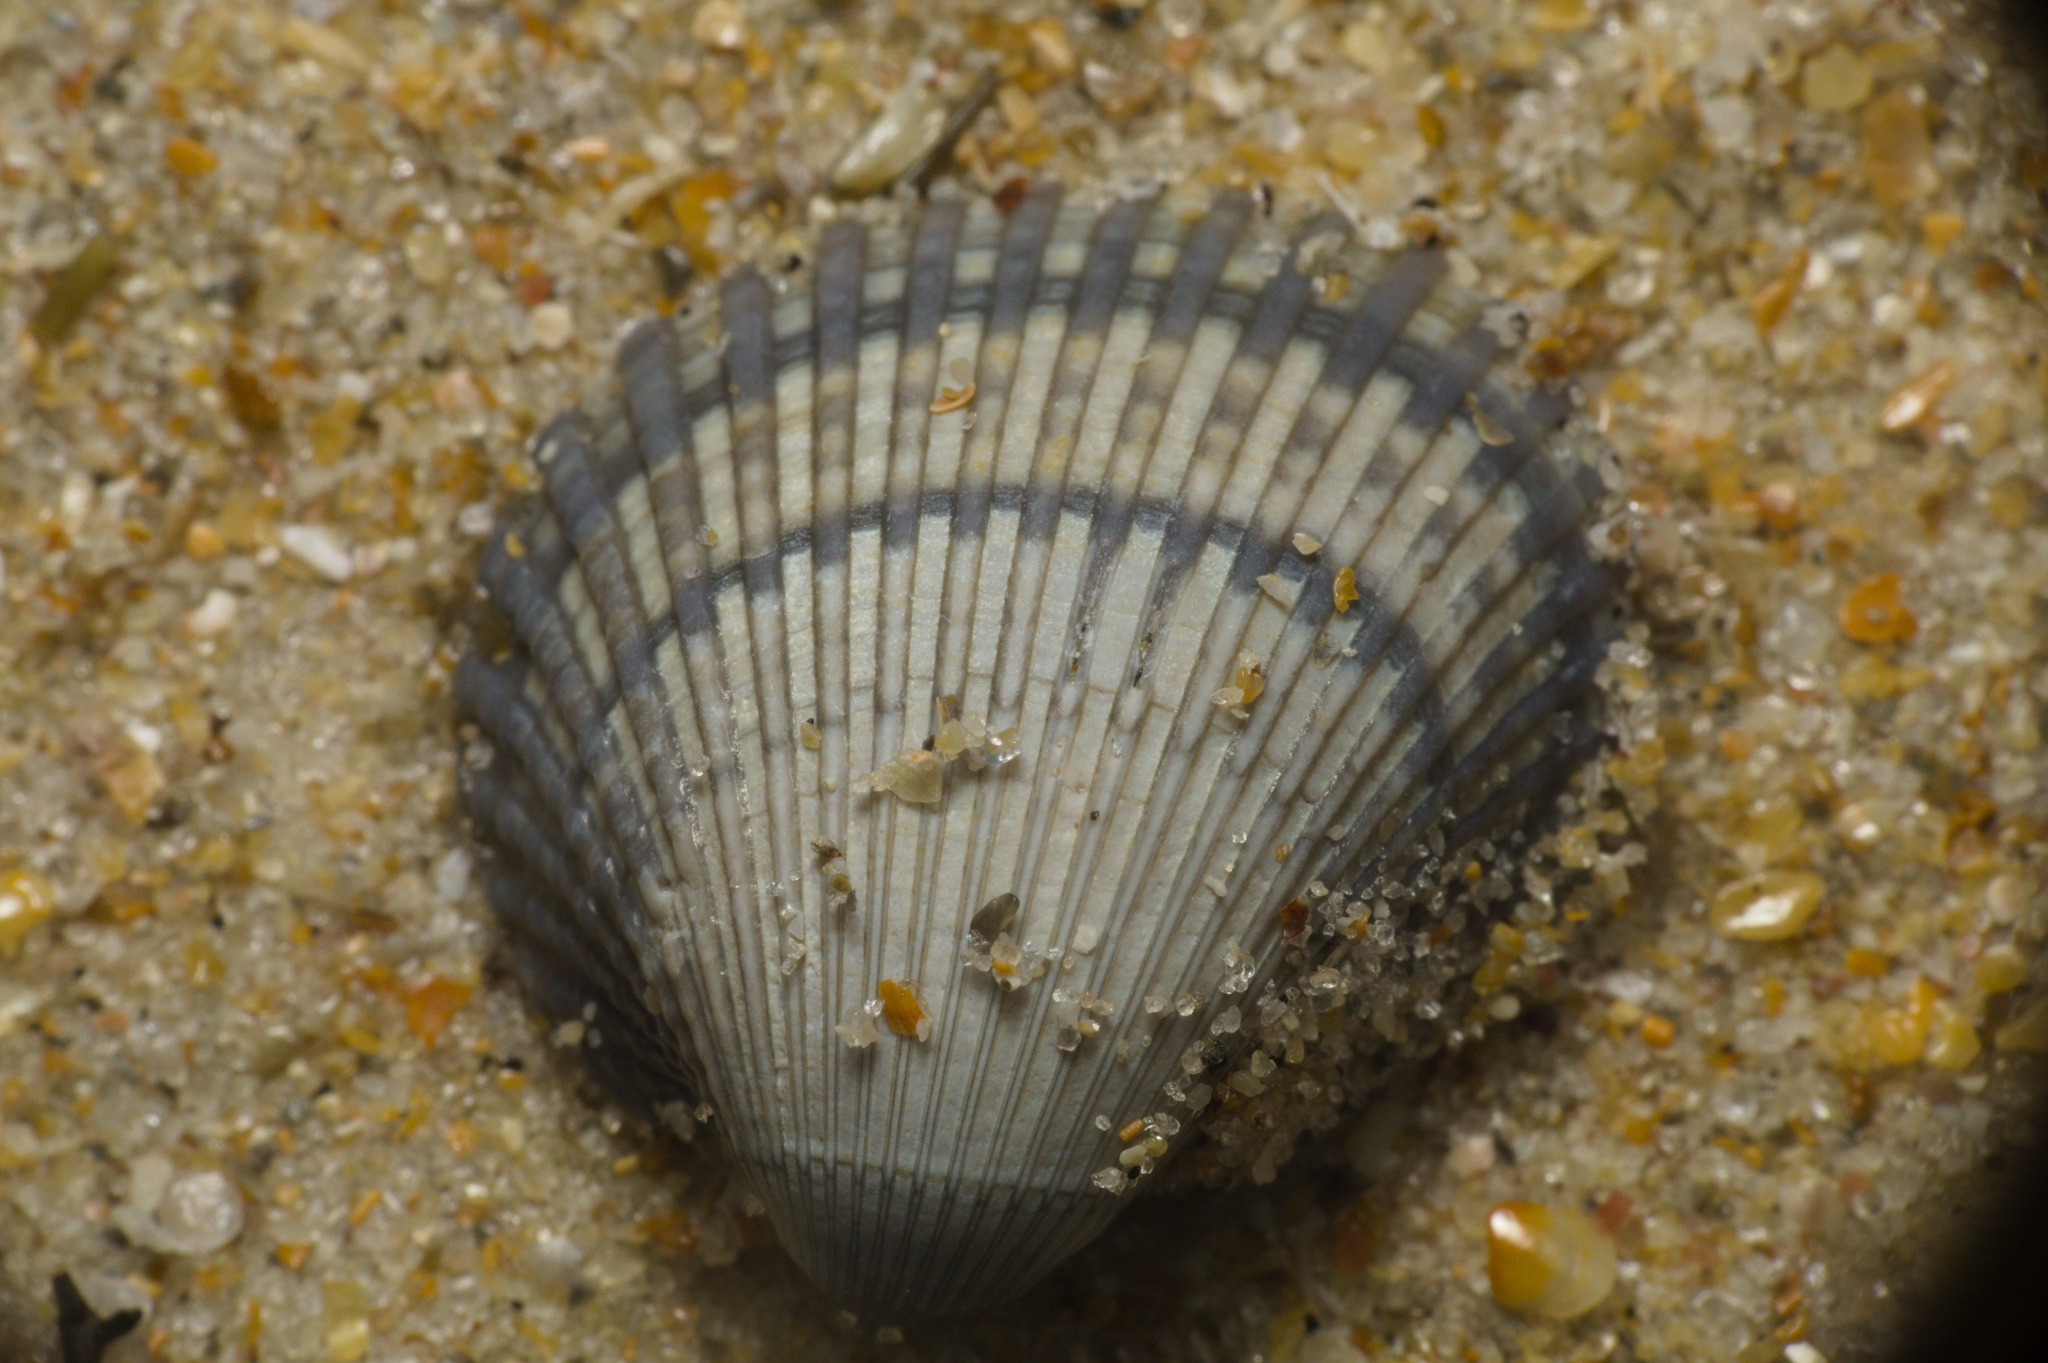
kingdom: Animalia
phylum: Mollusca
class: Bivalvia
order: Arcida
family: Arcidae
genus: Anadara
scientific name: Anadara chemnitzii
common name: Chemnitz's triangular ark
